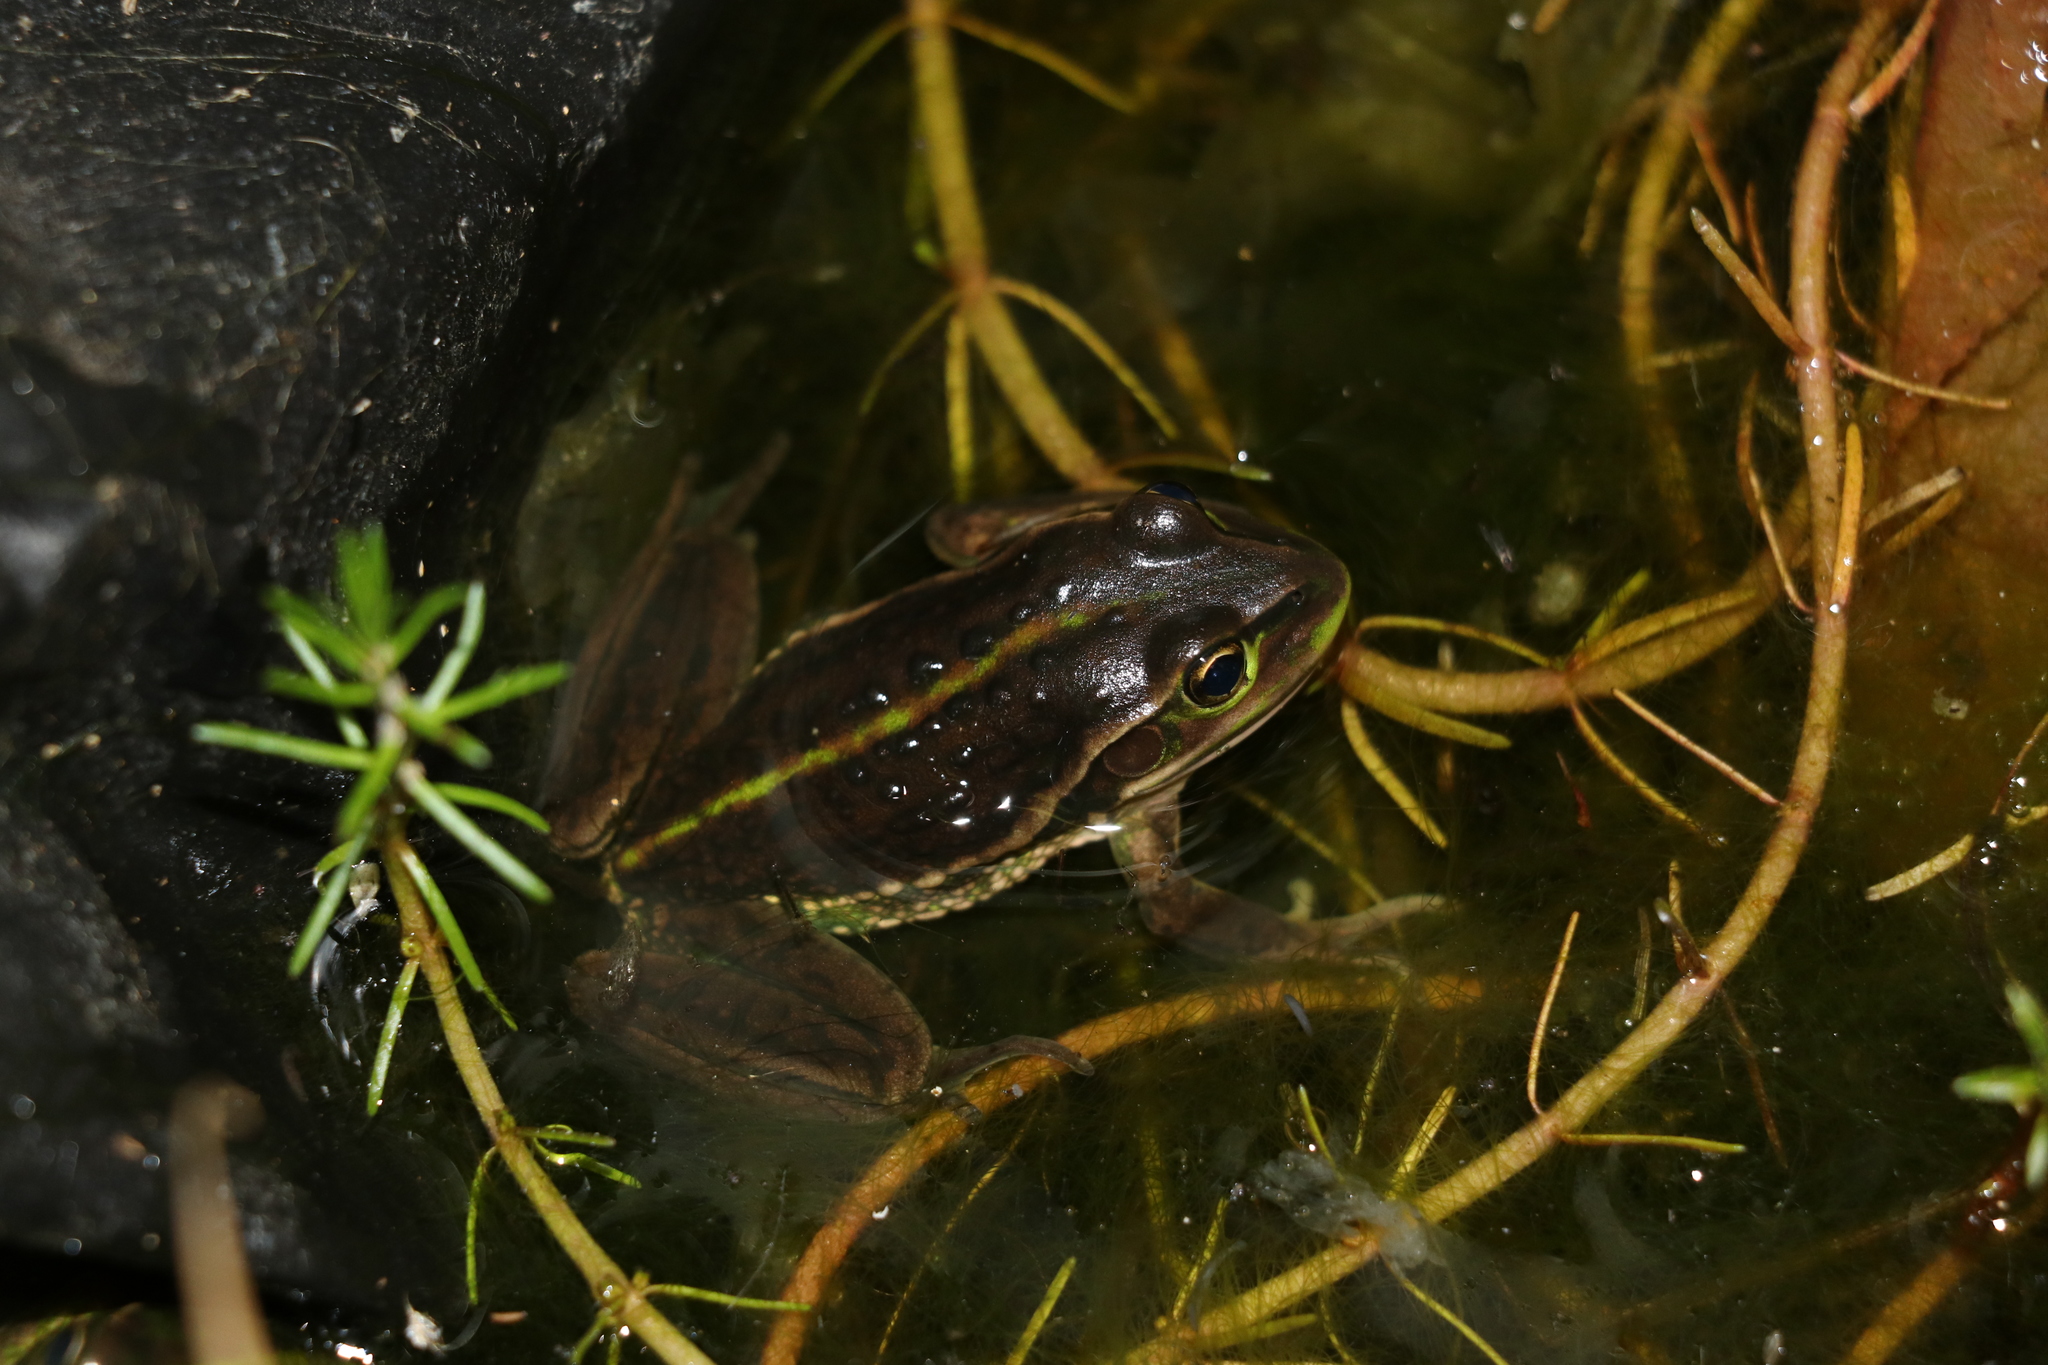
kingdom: Animalia
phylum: Chordata
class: Amphibia
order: Anura
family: Pelodryadidae
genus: Ranoidea
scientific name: Ranoidea raniformis
